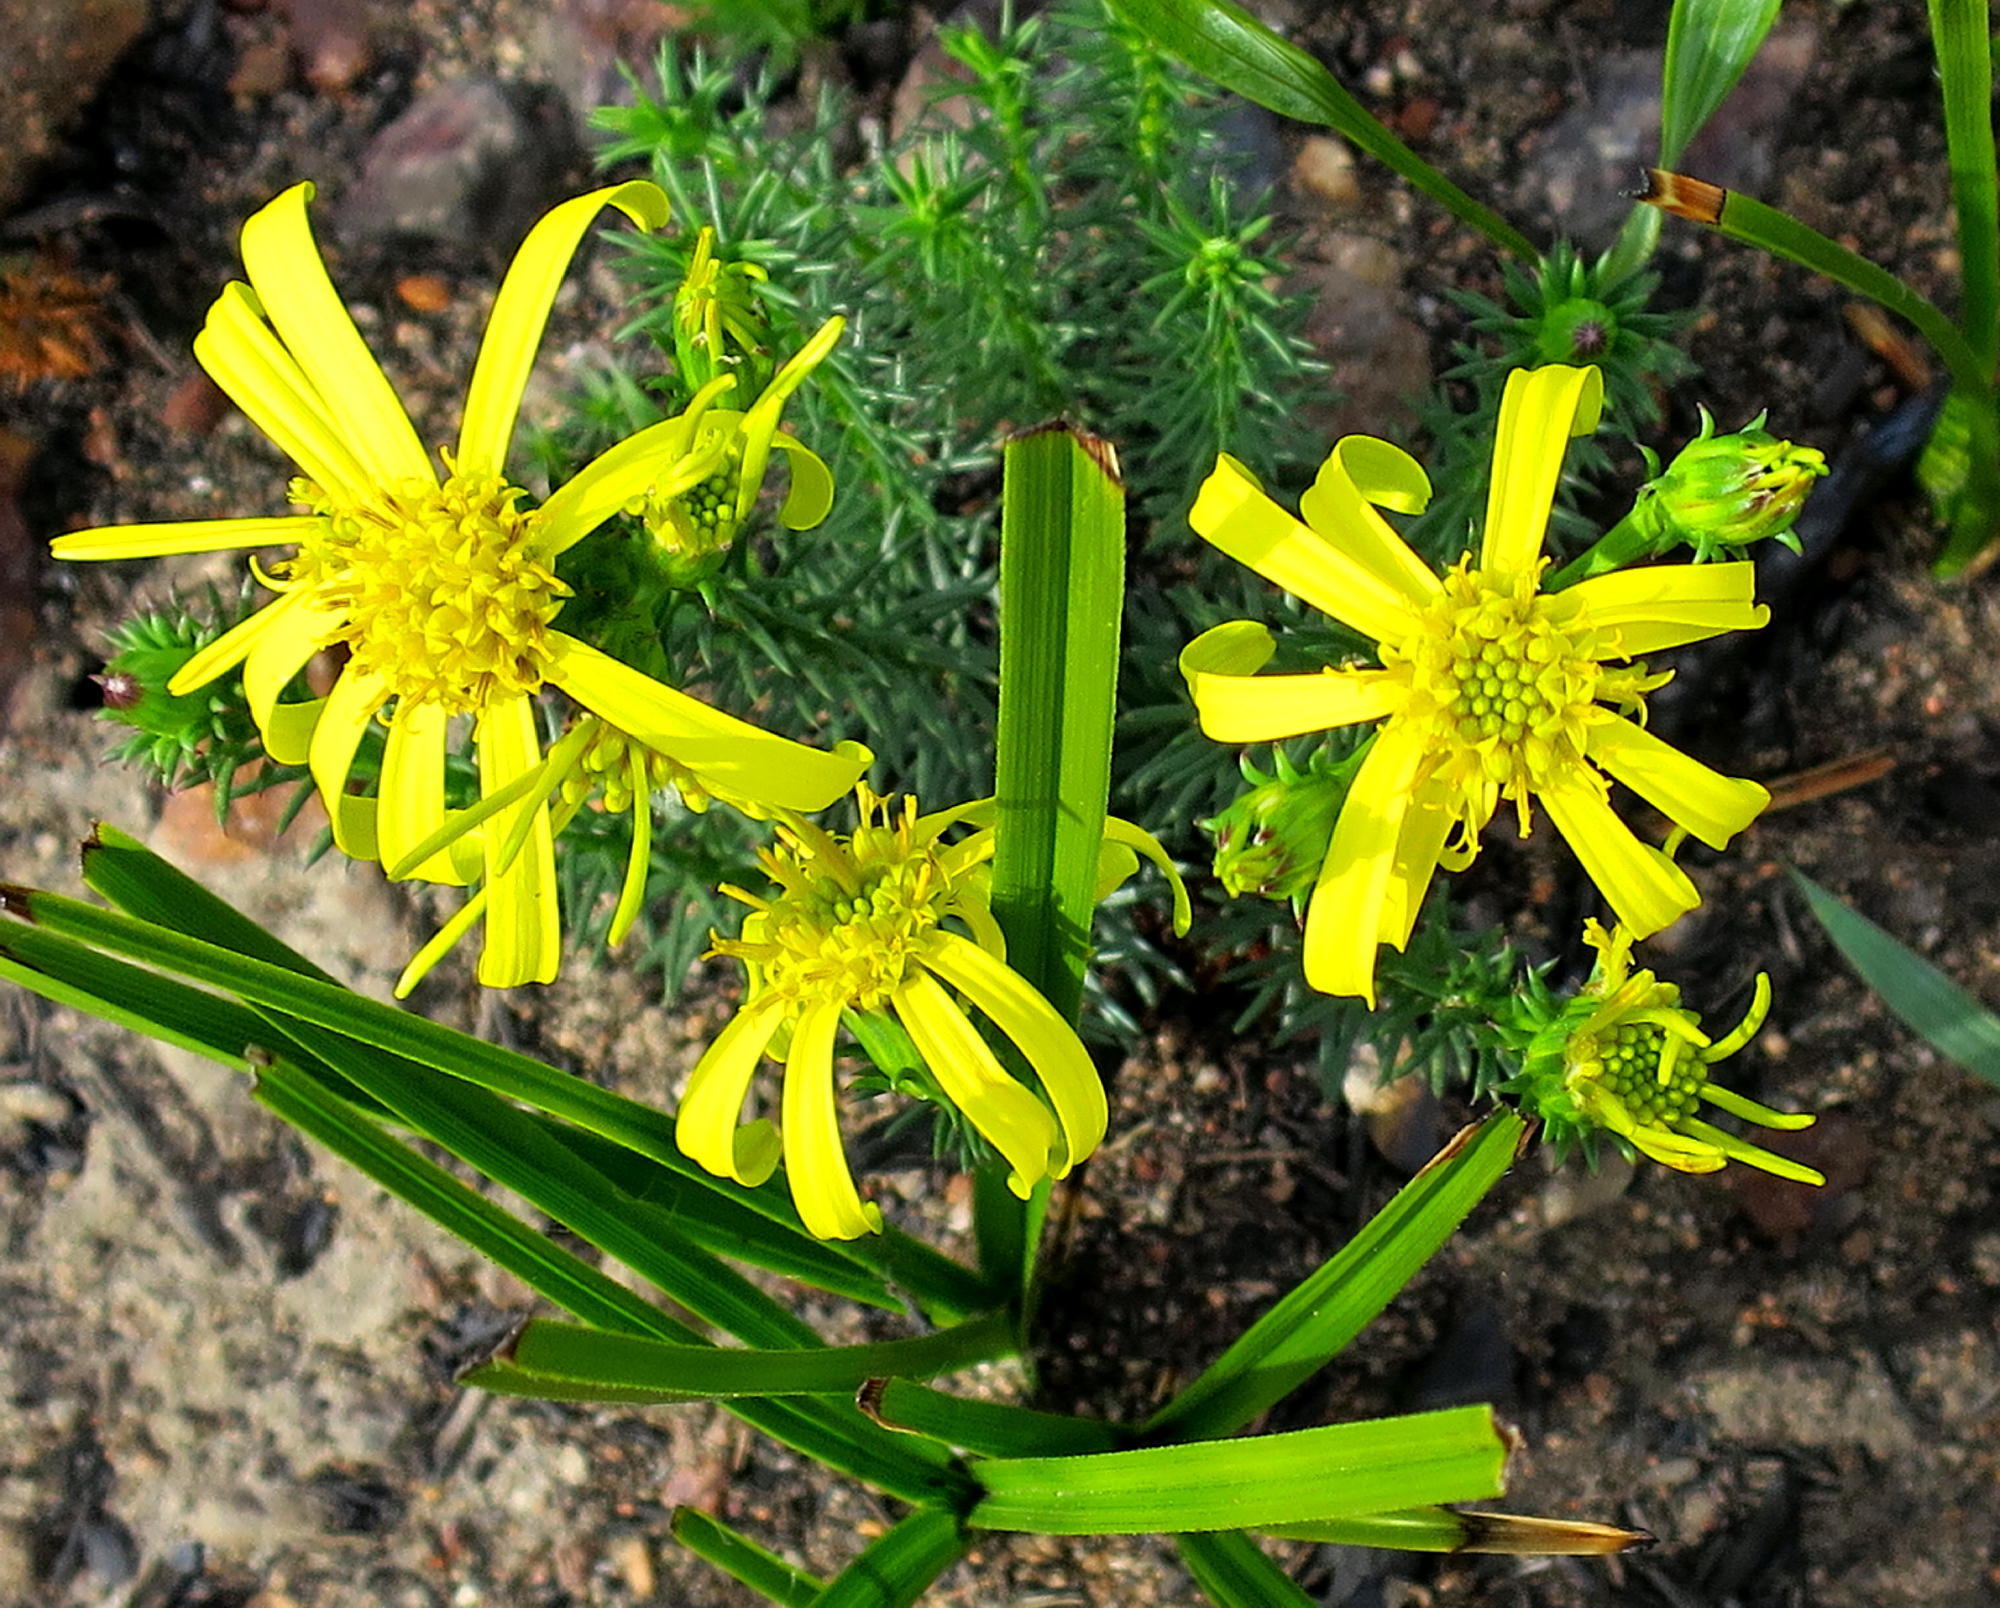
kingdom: Plantae
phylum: Tracheophyta
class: Magnoliopsida
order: Asterales
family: Asteraceae
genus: Senecio
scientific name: Senecio pinifolius
